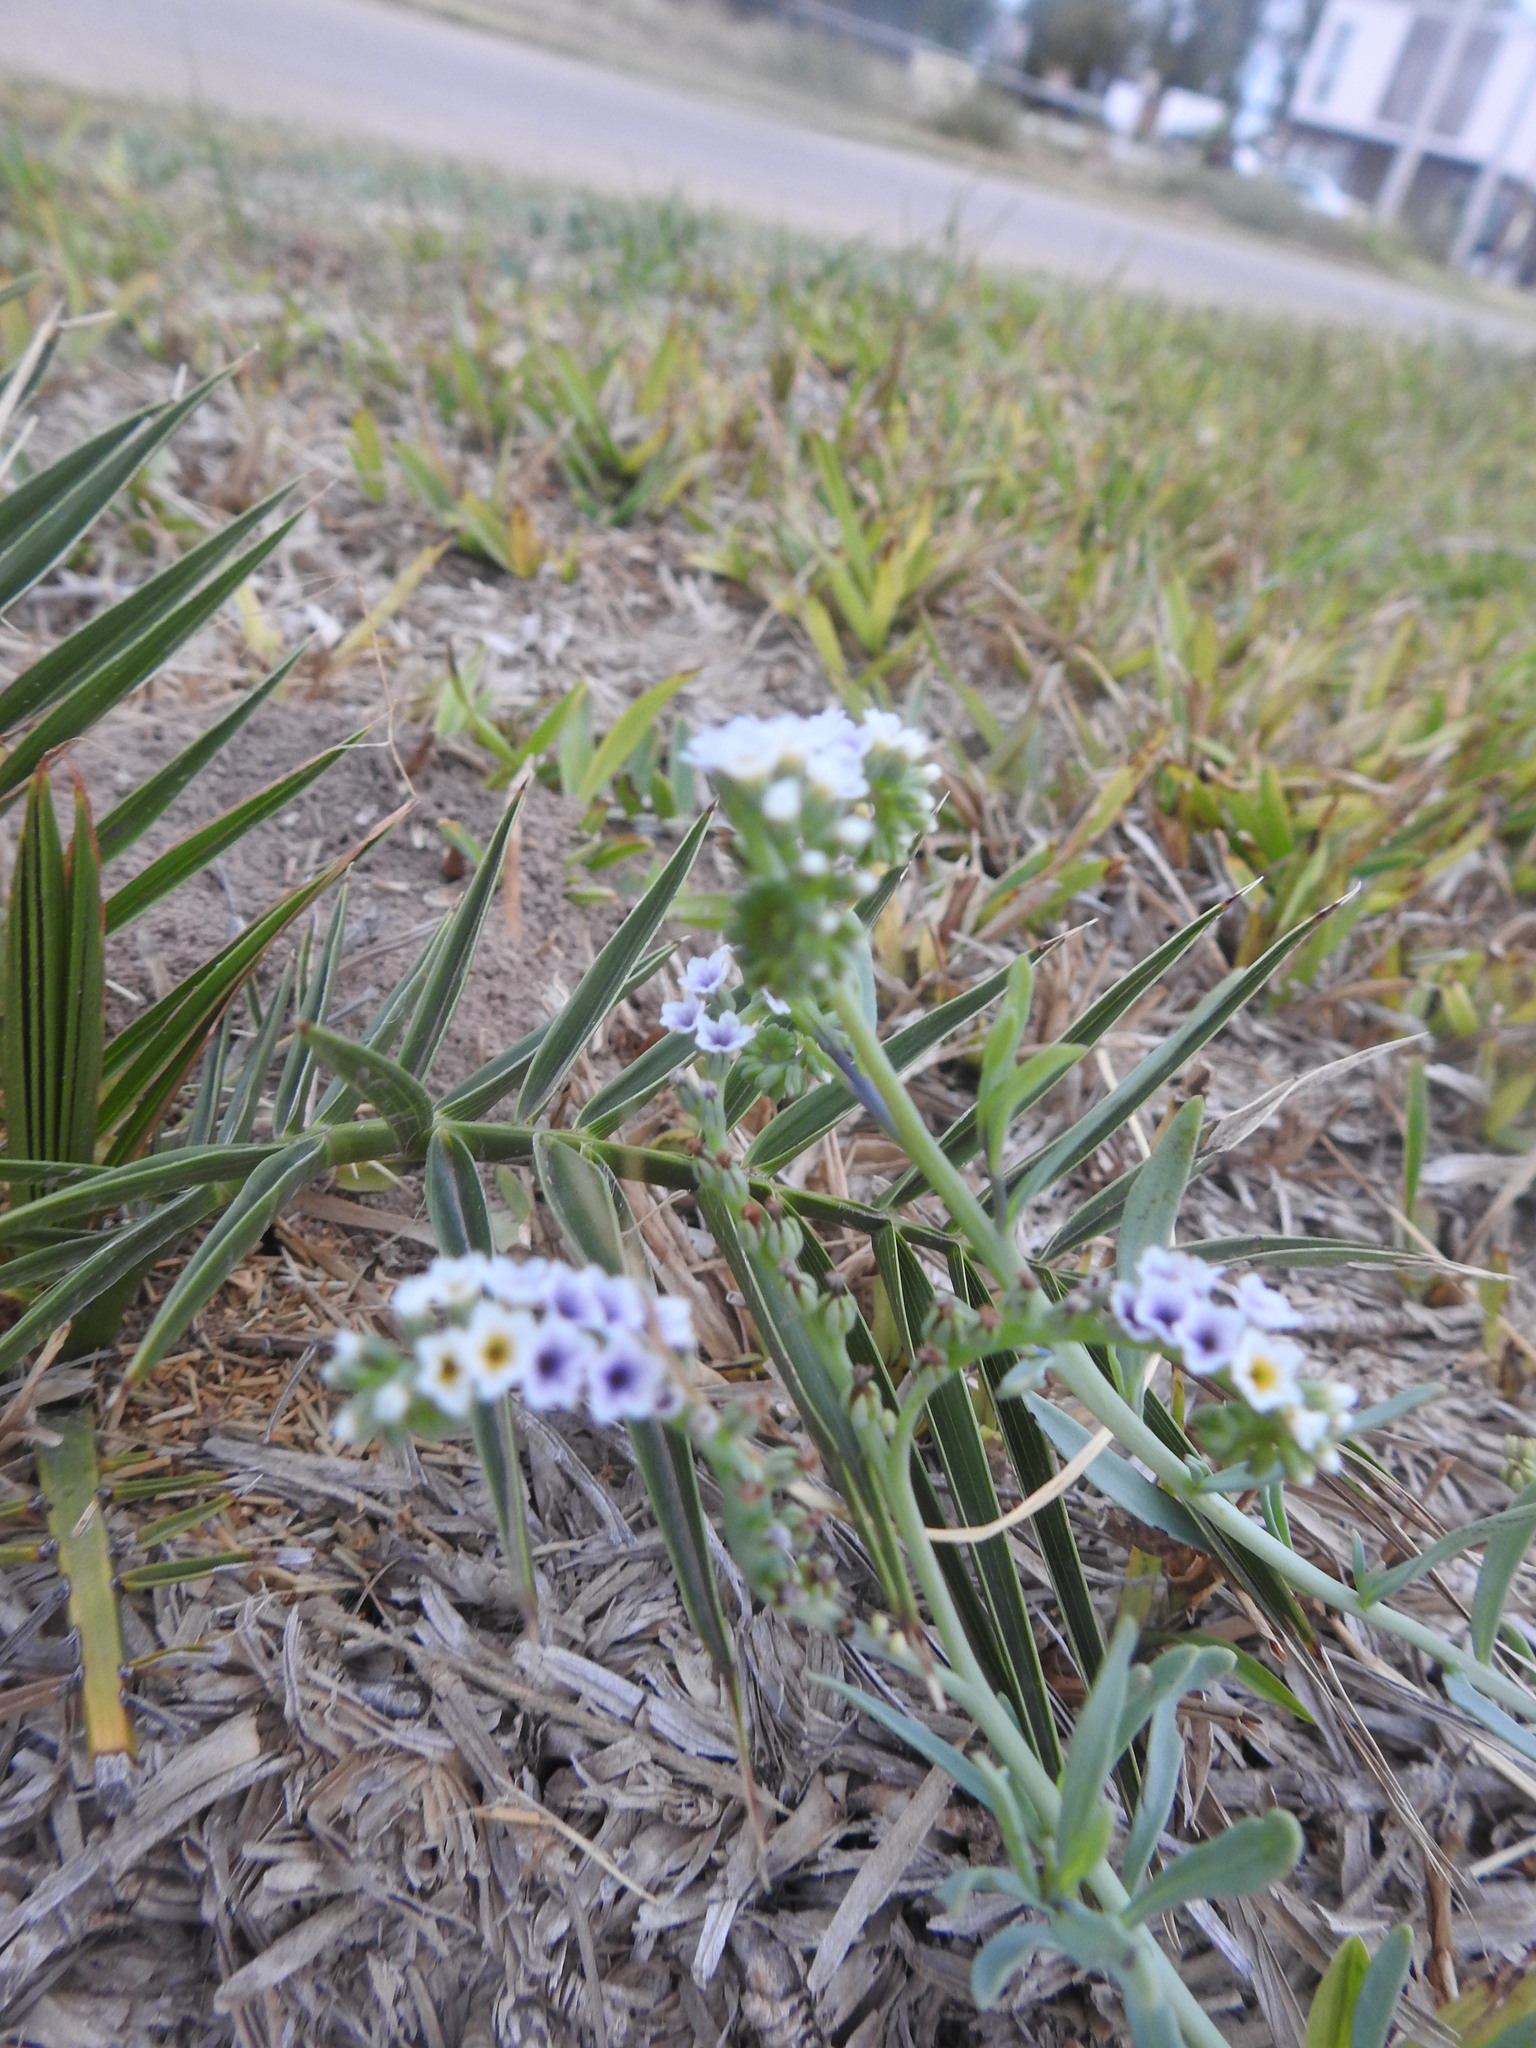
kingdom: Plantae
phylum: Tracheophyta
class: Magnoliopsida
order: Boraginales
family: Heliotropiaceae
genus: Heliotropium
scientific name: Heliotropium curassavicum
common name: Seaside heliotrope
